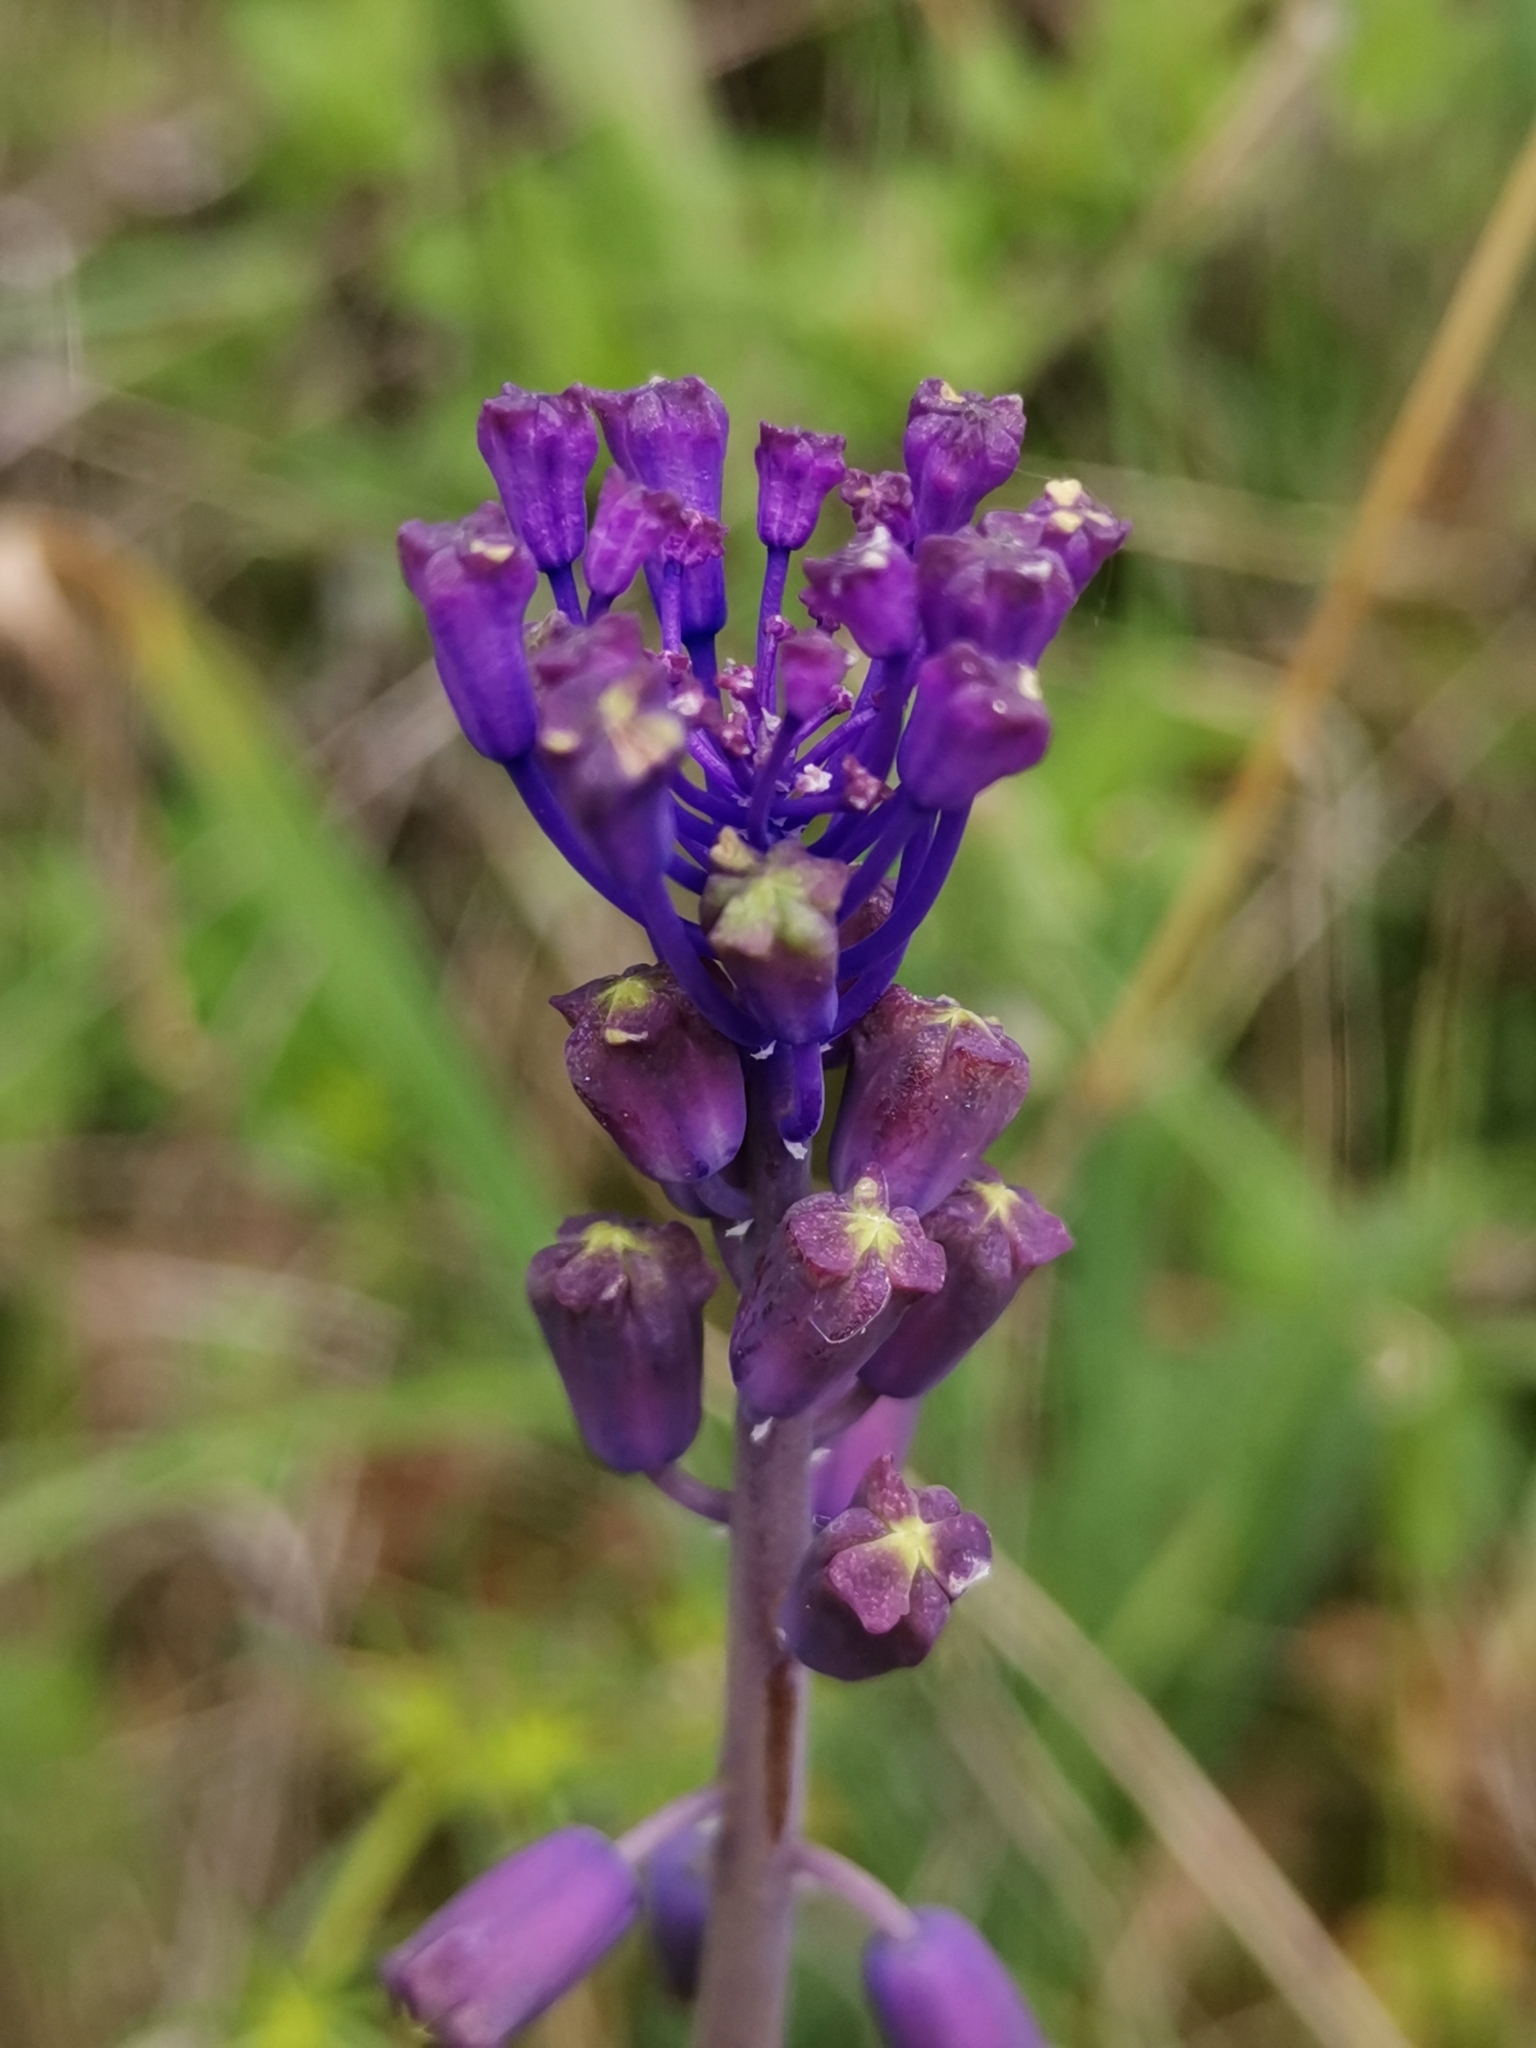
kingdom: Plantae
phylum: Tracheophyta
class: Liliopsida
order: Asparagales
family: Asparagaceae
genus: Muscari
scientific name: Muscari comosum
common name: Tassel hyacinth
